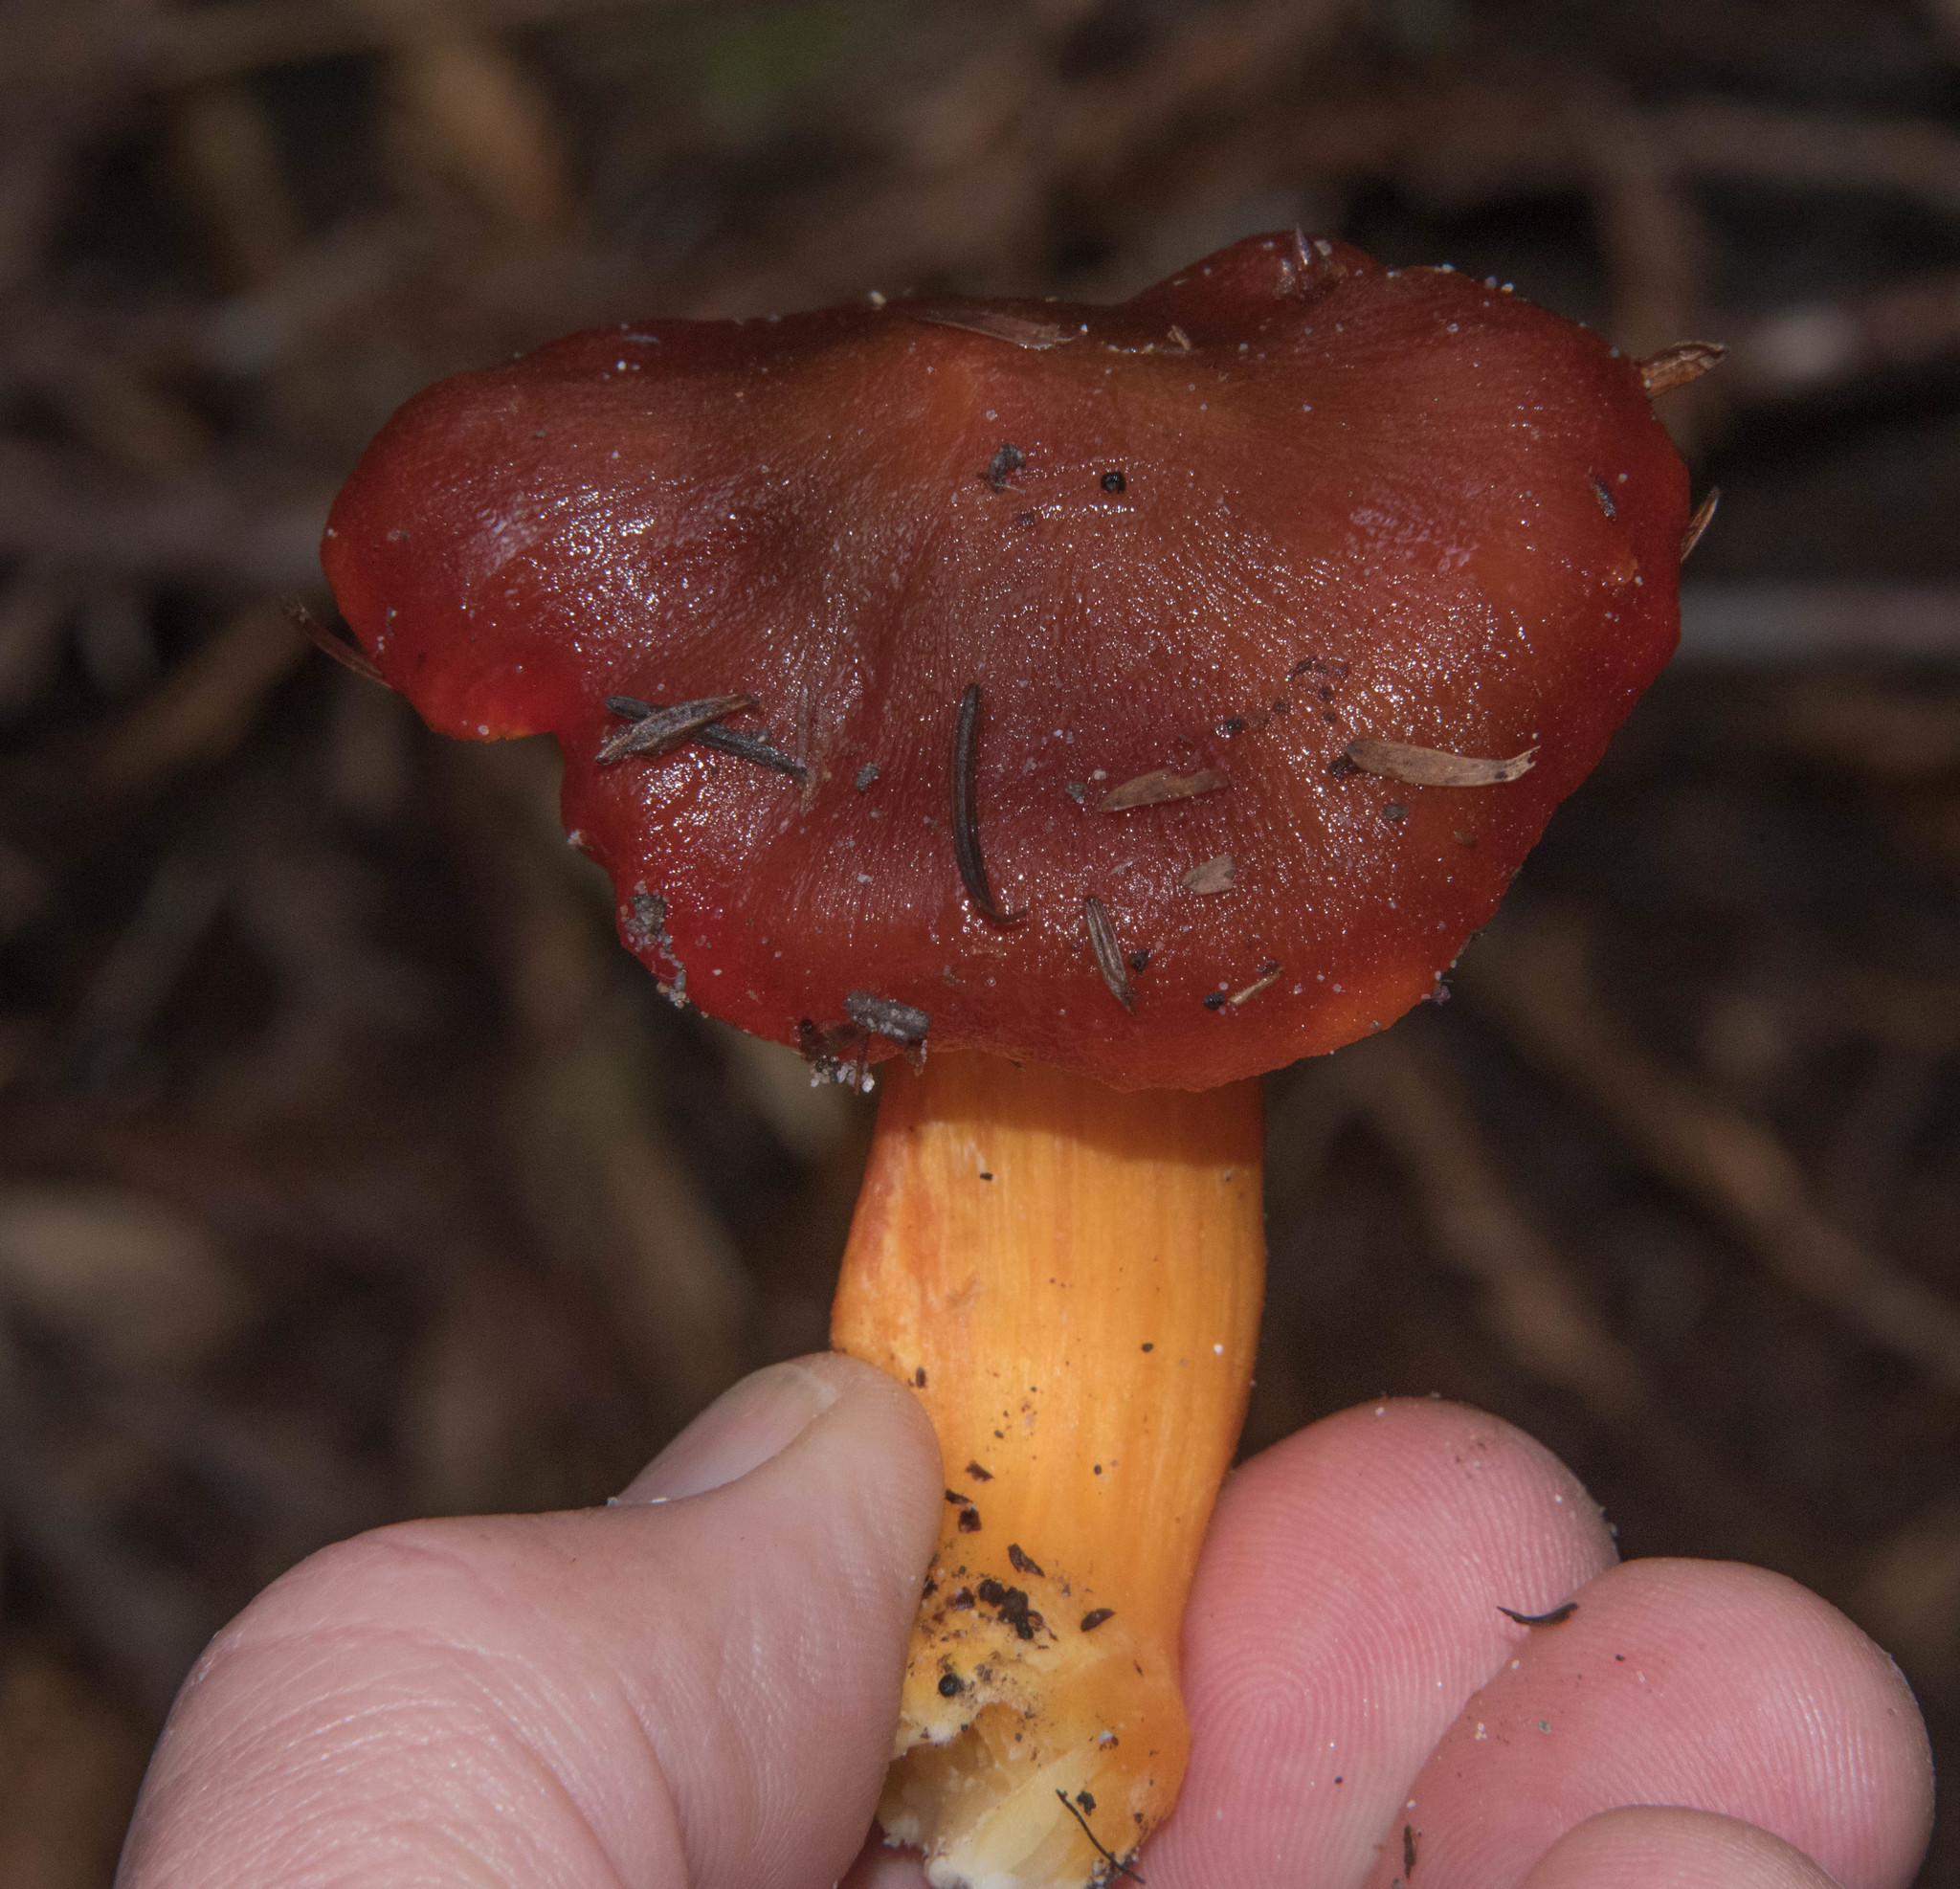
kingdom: Fungi
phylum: Basidiomycota
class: Agaricomycetes
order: Agaricales
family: Hygrophoraceae
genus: Hygrocybe
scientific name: Hygrocybe punicea
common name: Crimson waxcap
